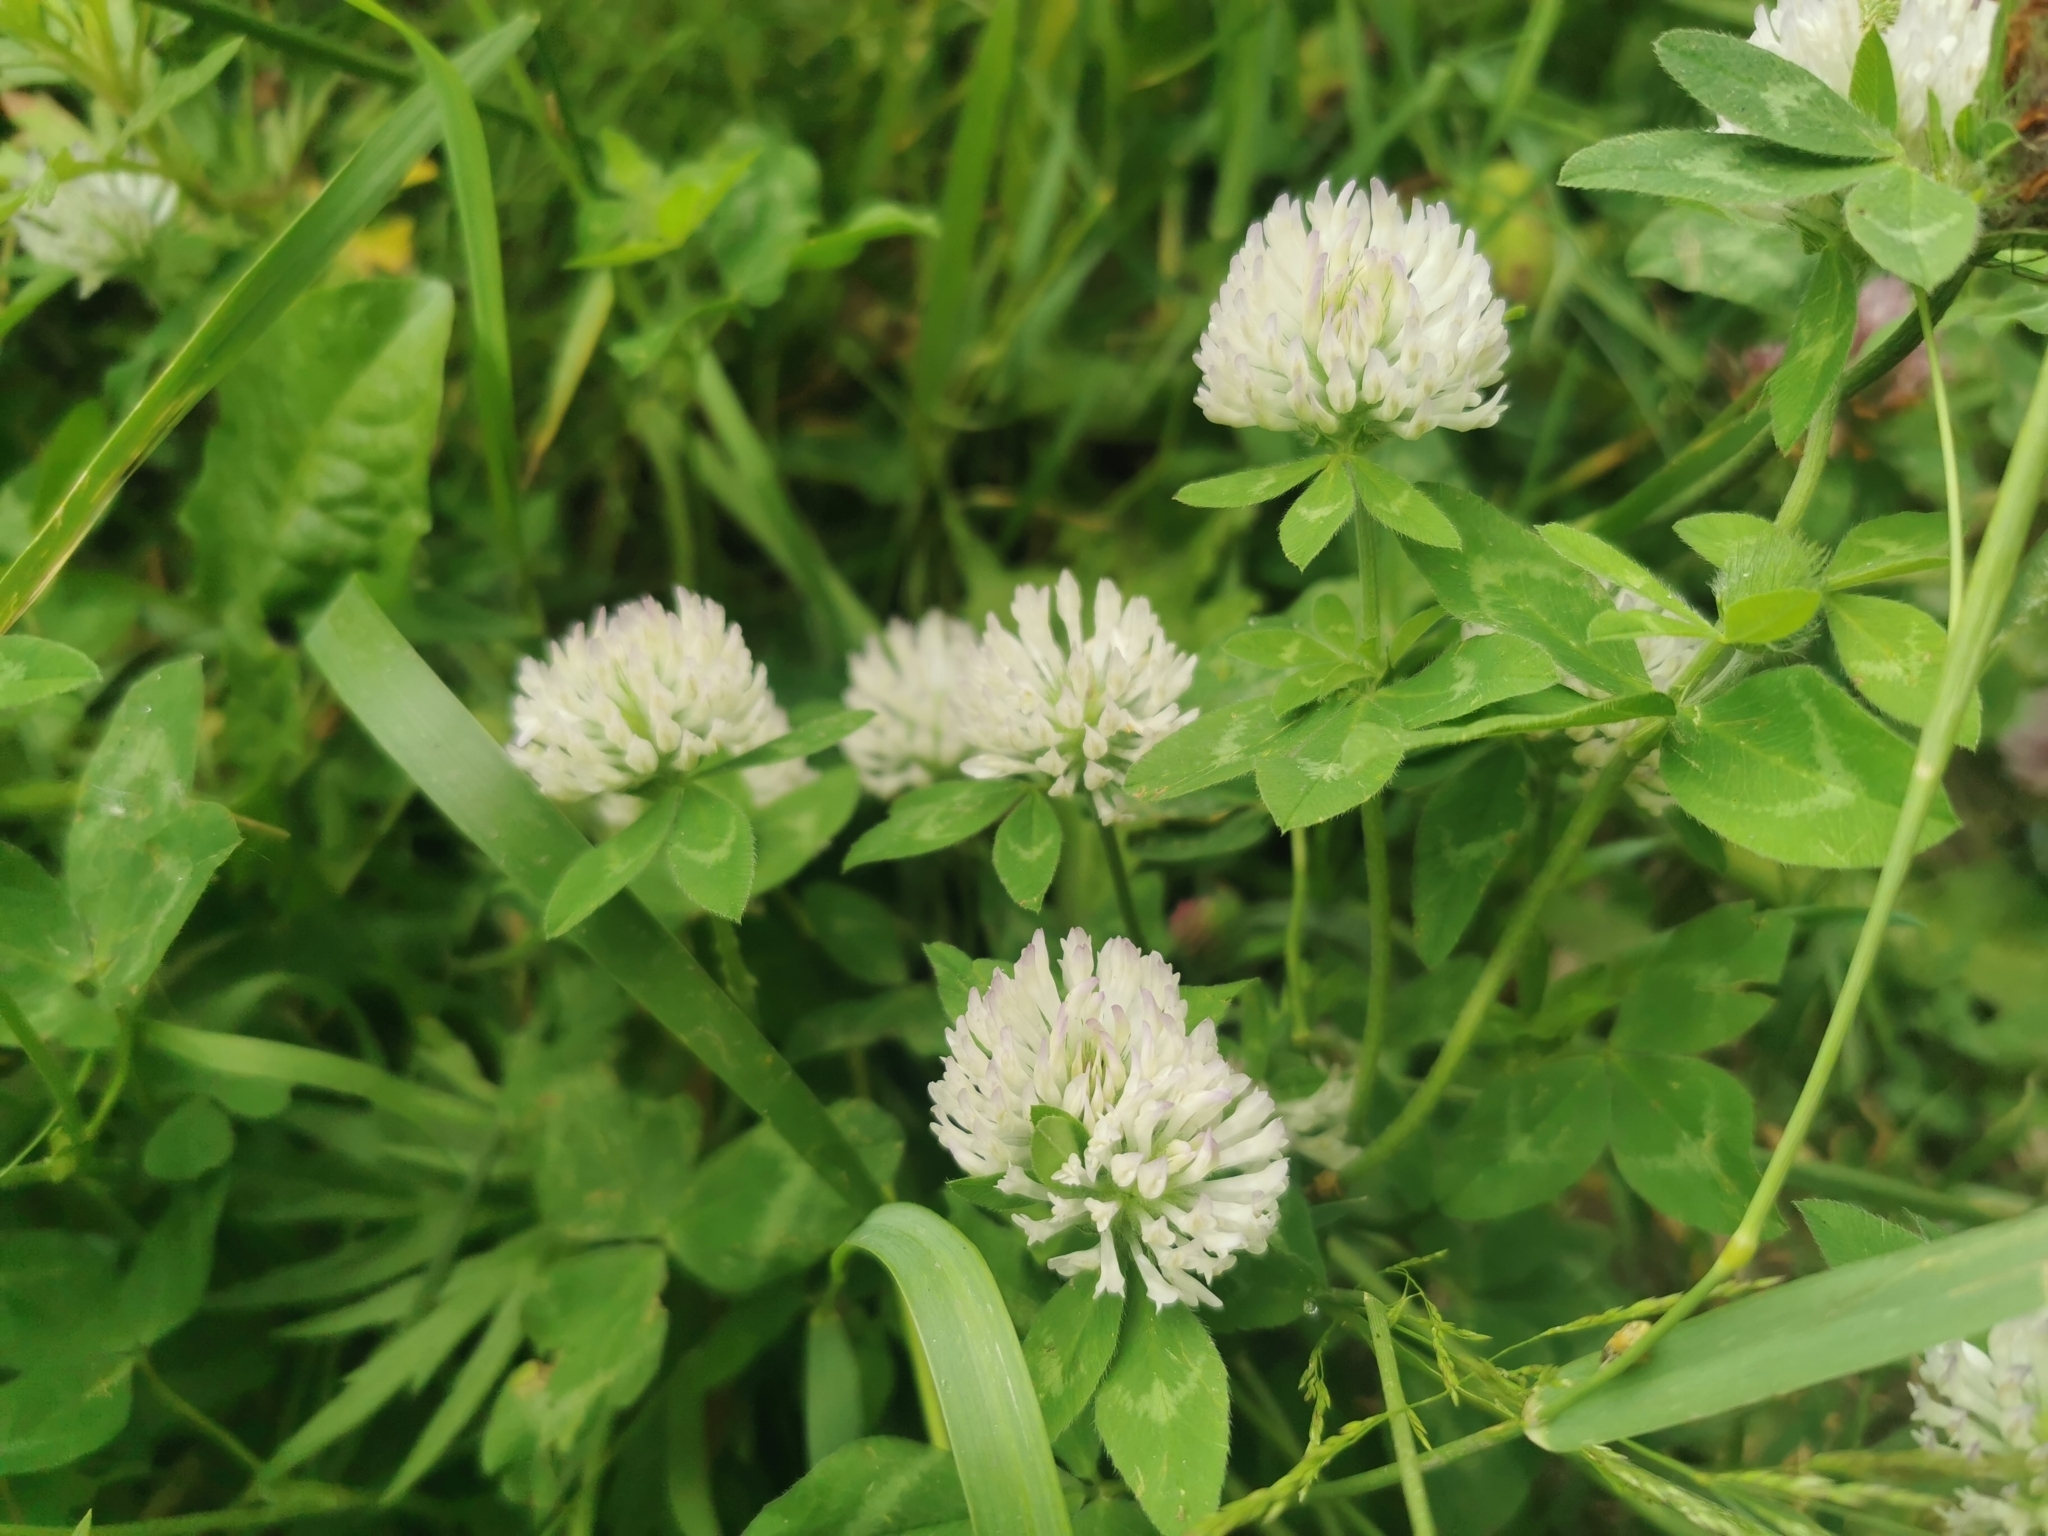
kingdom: Plantae
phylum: Tracheophyta
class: Magnoliopsida
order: Fabales
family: Fabaceae
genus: Trifolium
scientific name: Trifolium hybridum
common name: Alsike clover
